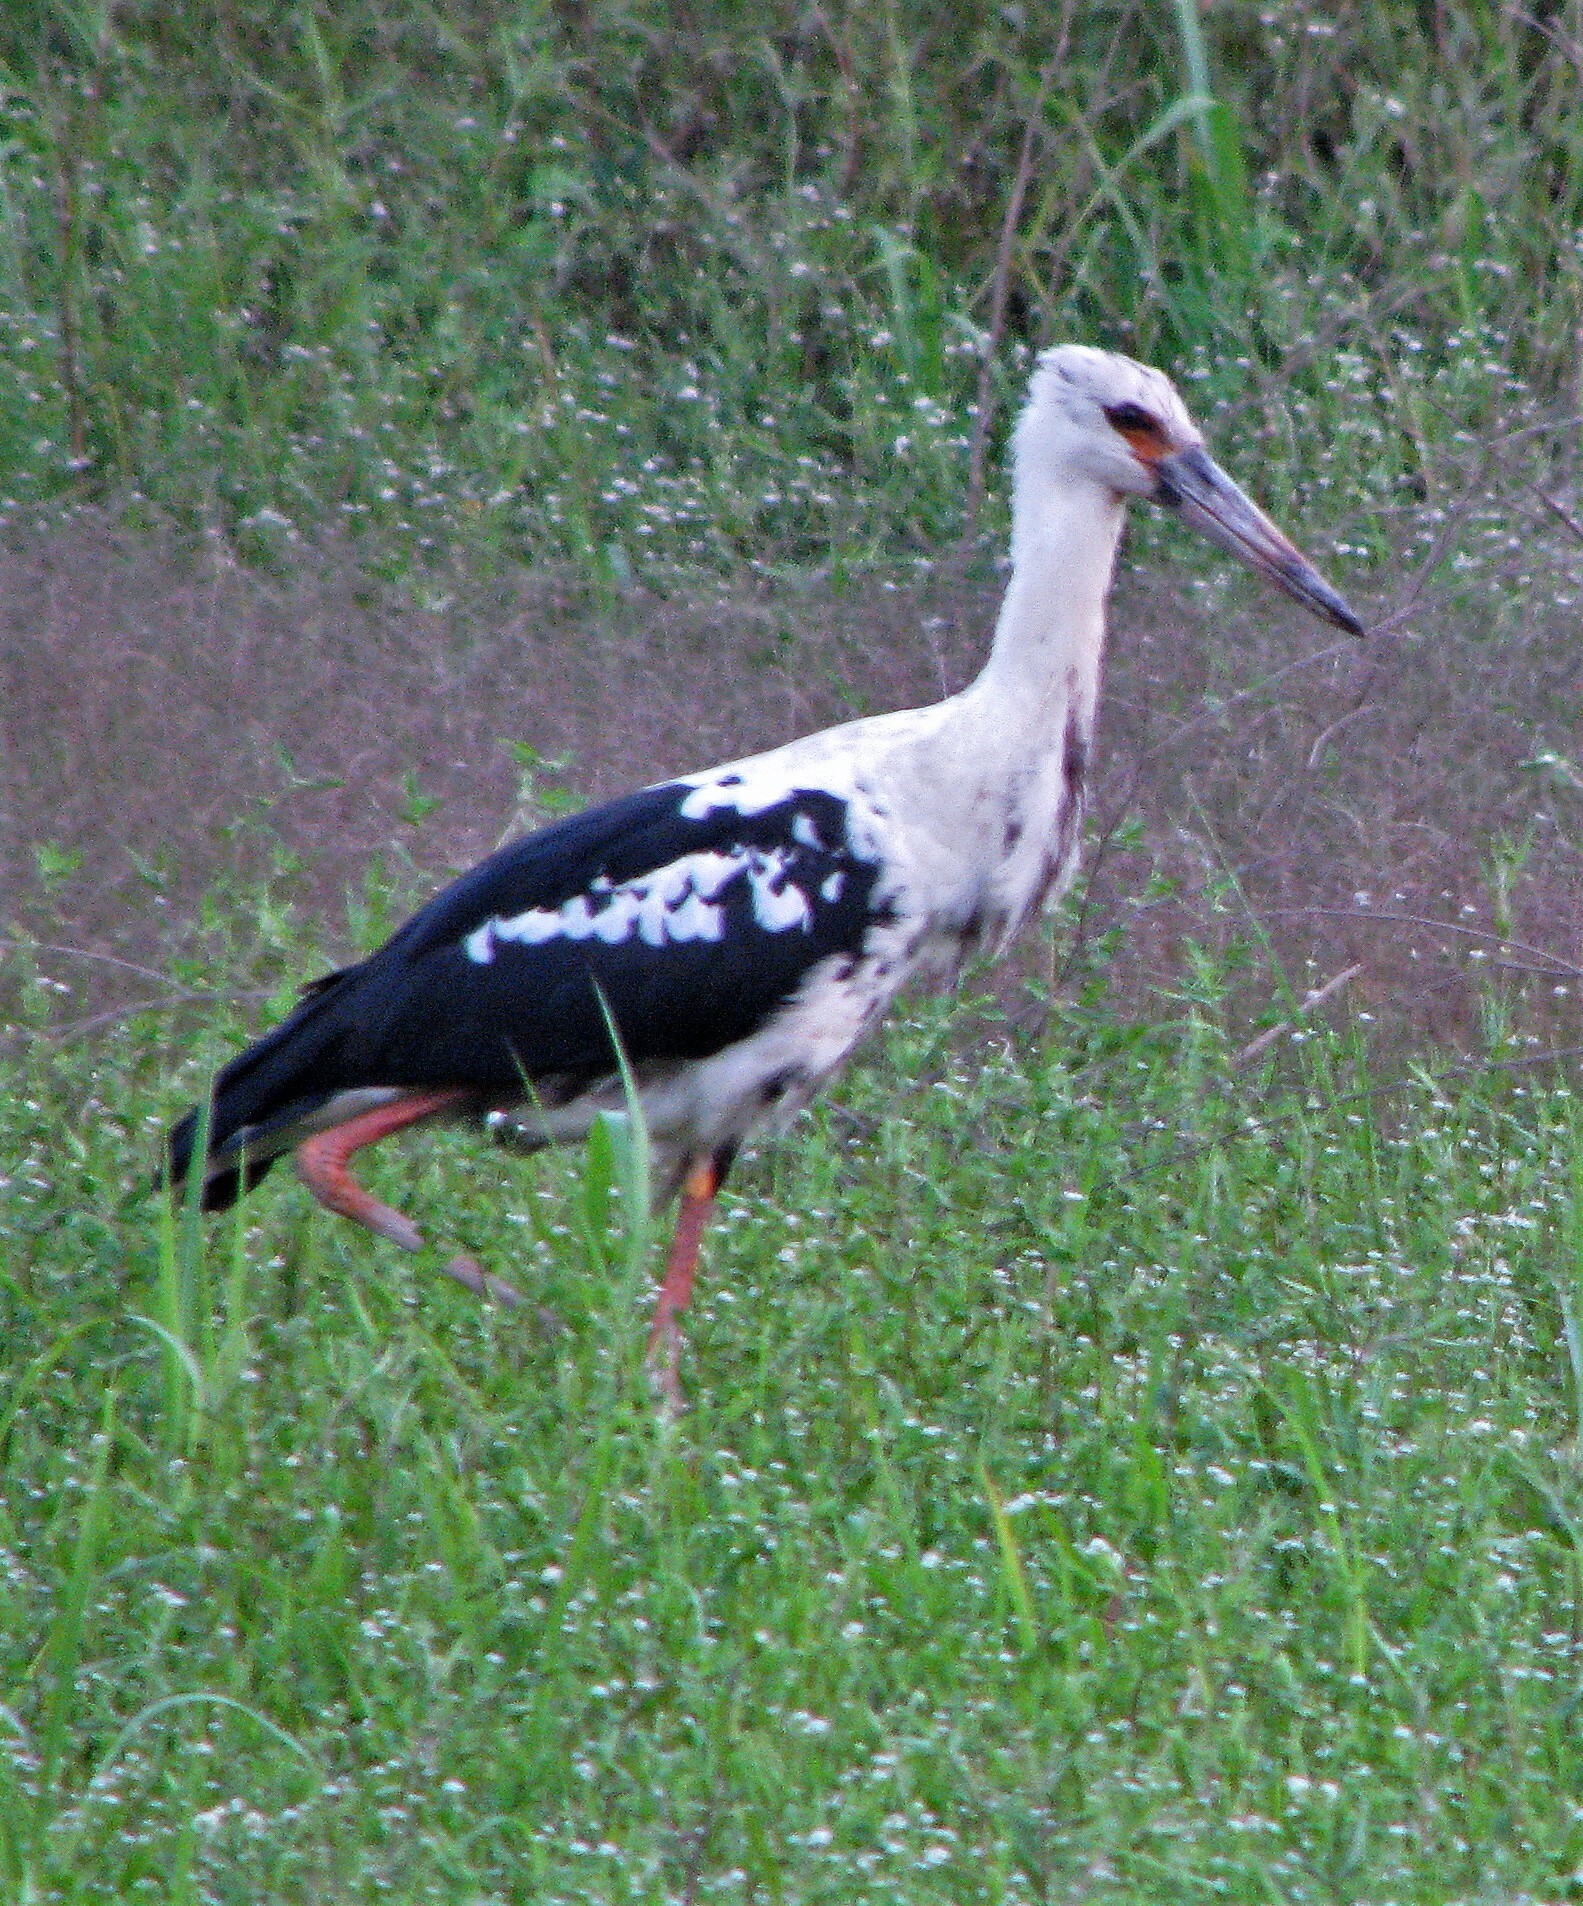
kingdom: Animalia
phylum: Chordata
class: Aves
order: Ciconiiformes
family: Ciconiidae
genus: Ciconia
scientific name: Ciconia maguari
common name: Maguari stork
